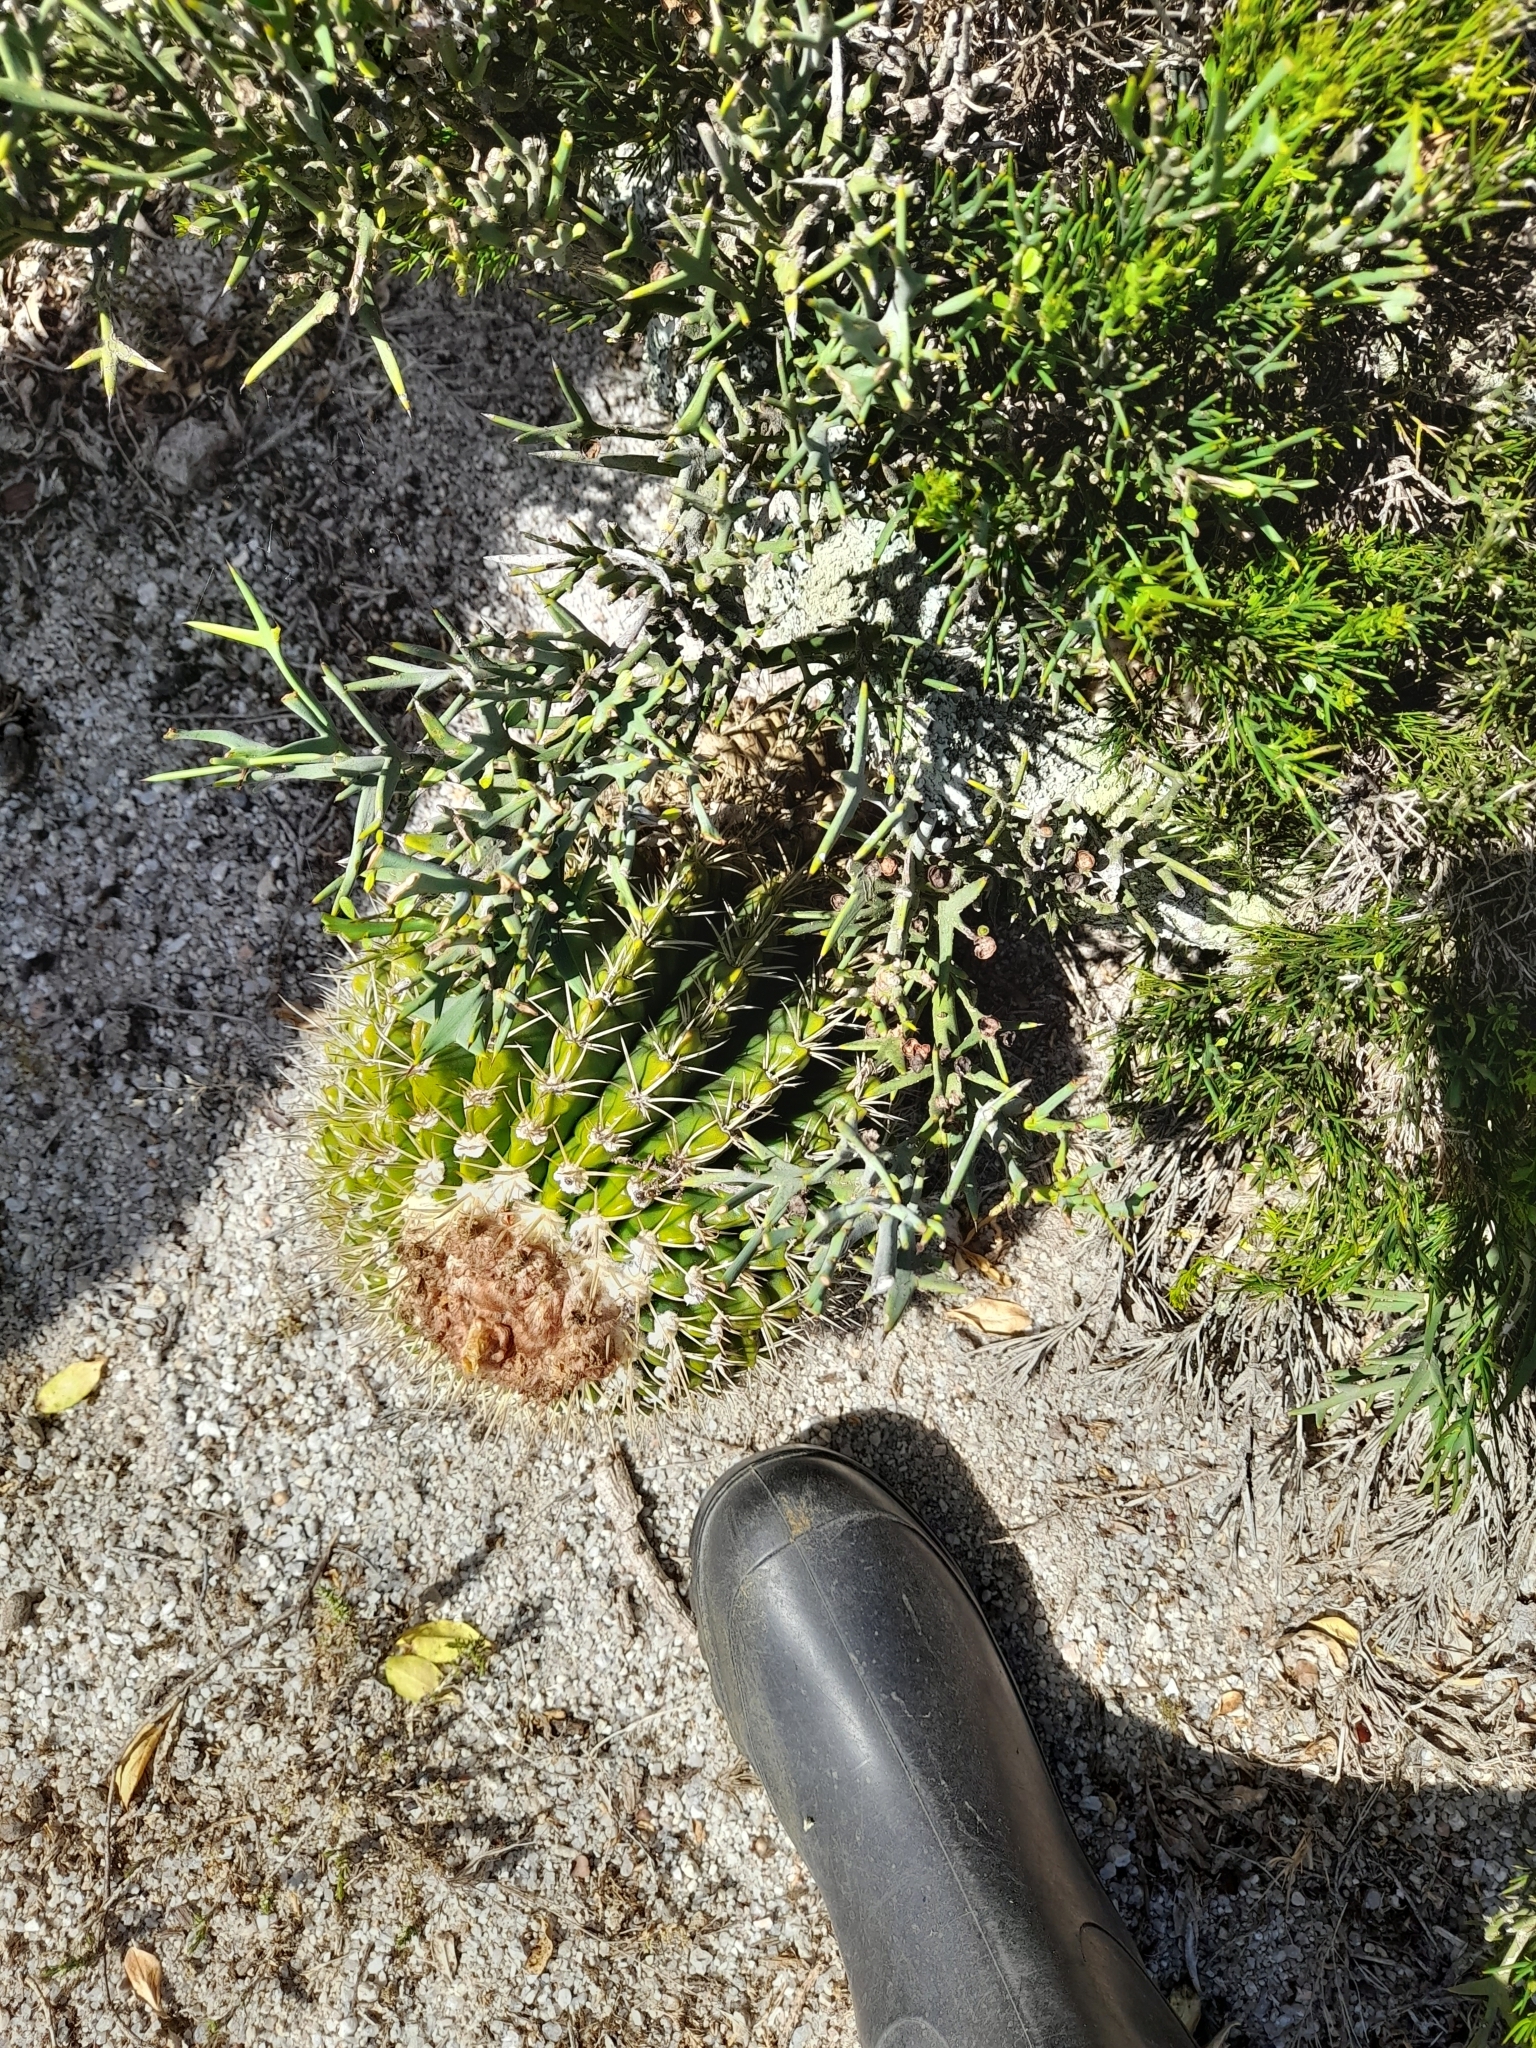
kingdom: Plantae
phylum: Tracheophyta
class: Magnoliopsida
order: Caryophyllales
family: Cactaceae
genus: Parodia
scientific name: Parodia erinacea
